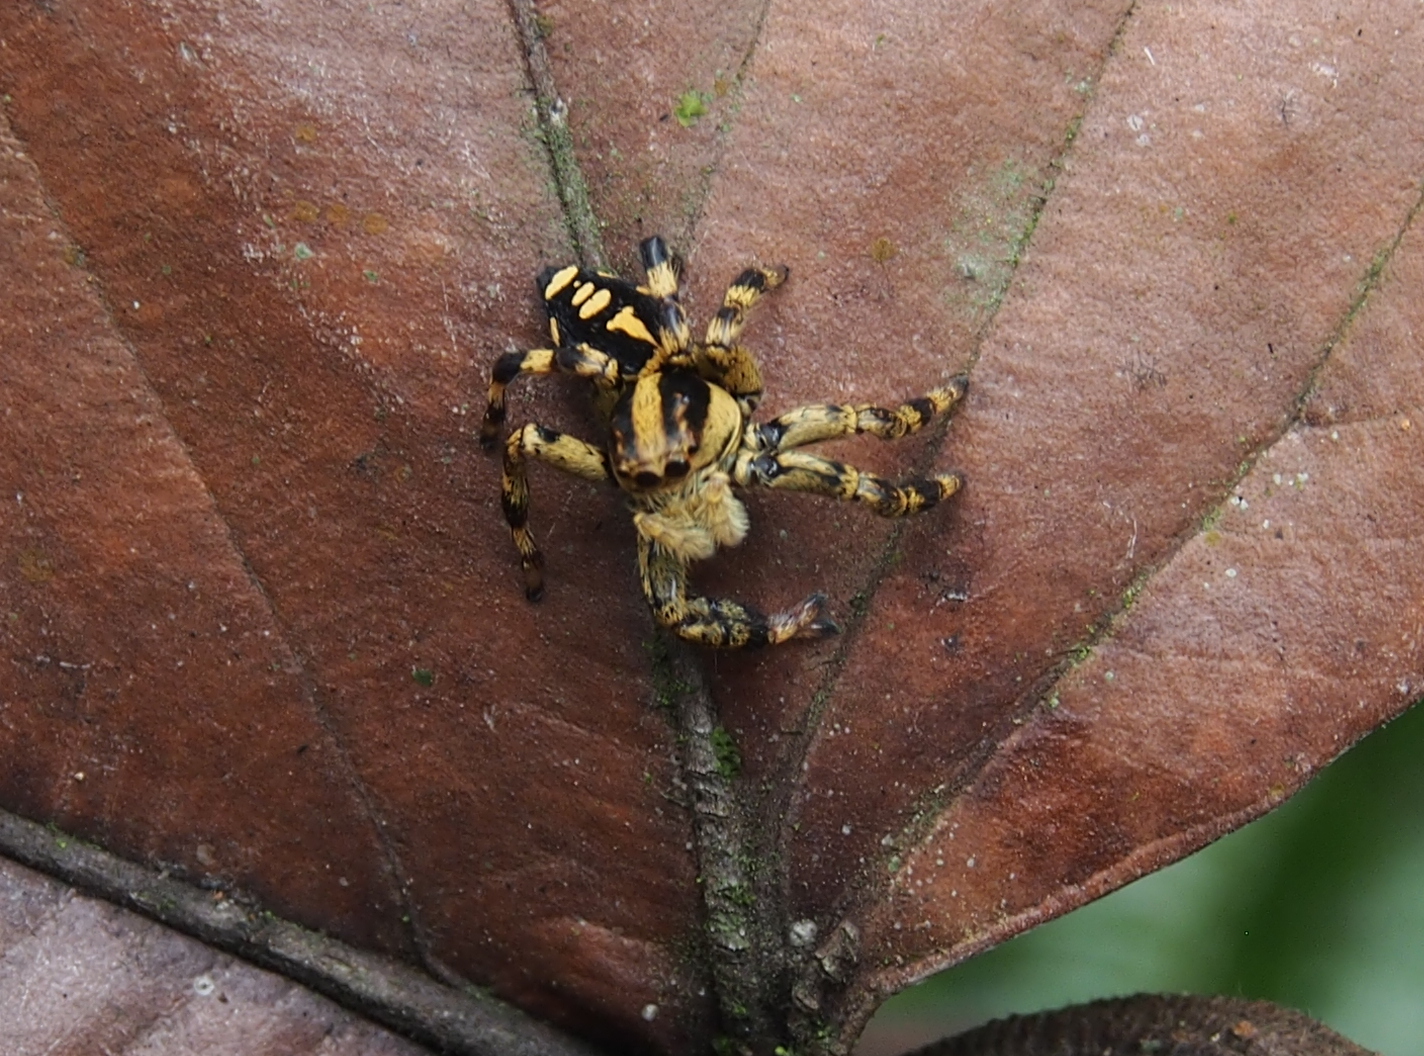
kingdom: Animalia
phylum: Arthropoda
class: Arachnida
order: Araneae
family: Salticidae
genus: Phiale
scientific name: Phiale guttata
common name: Jumping spiders
